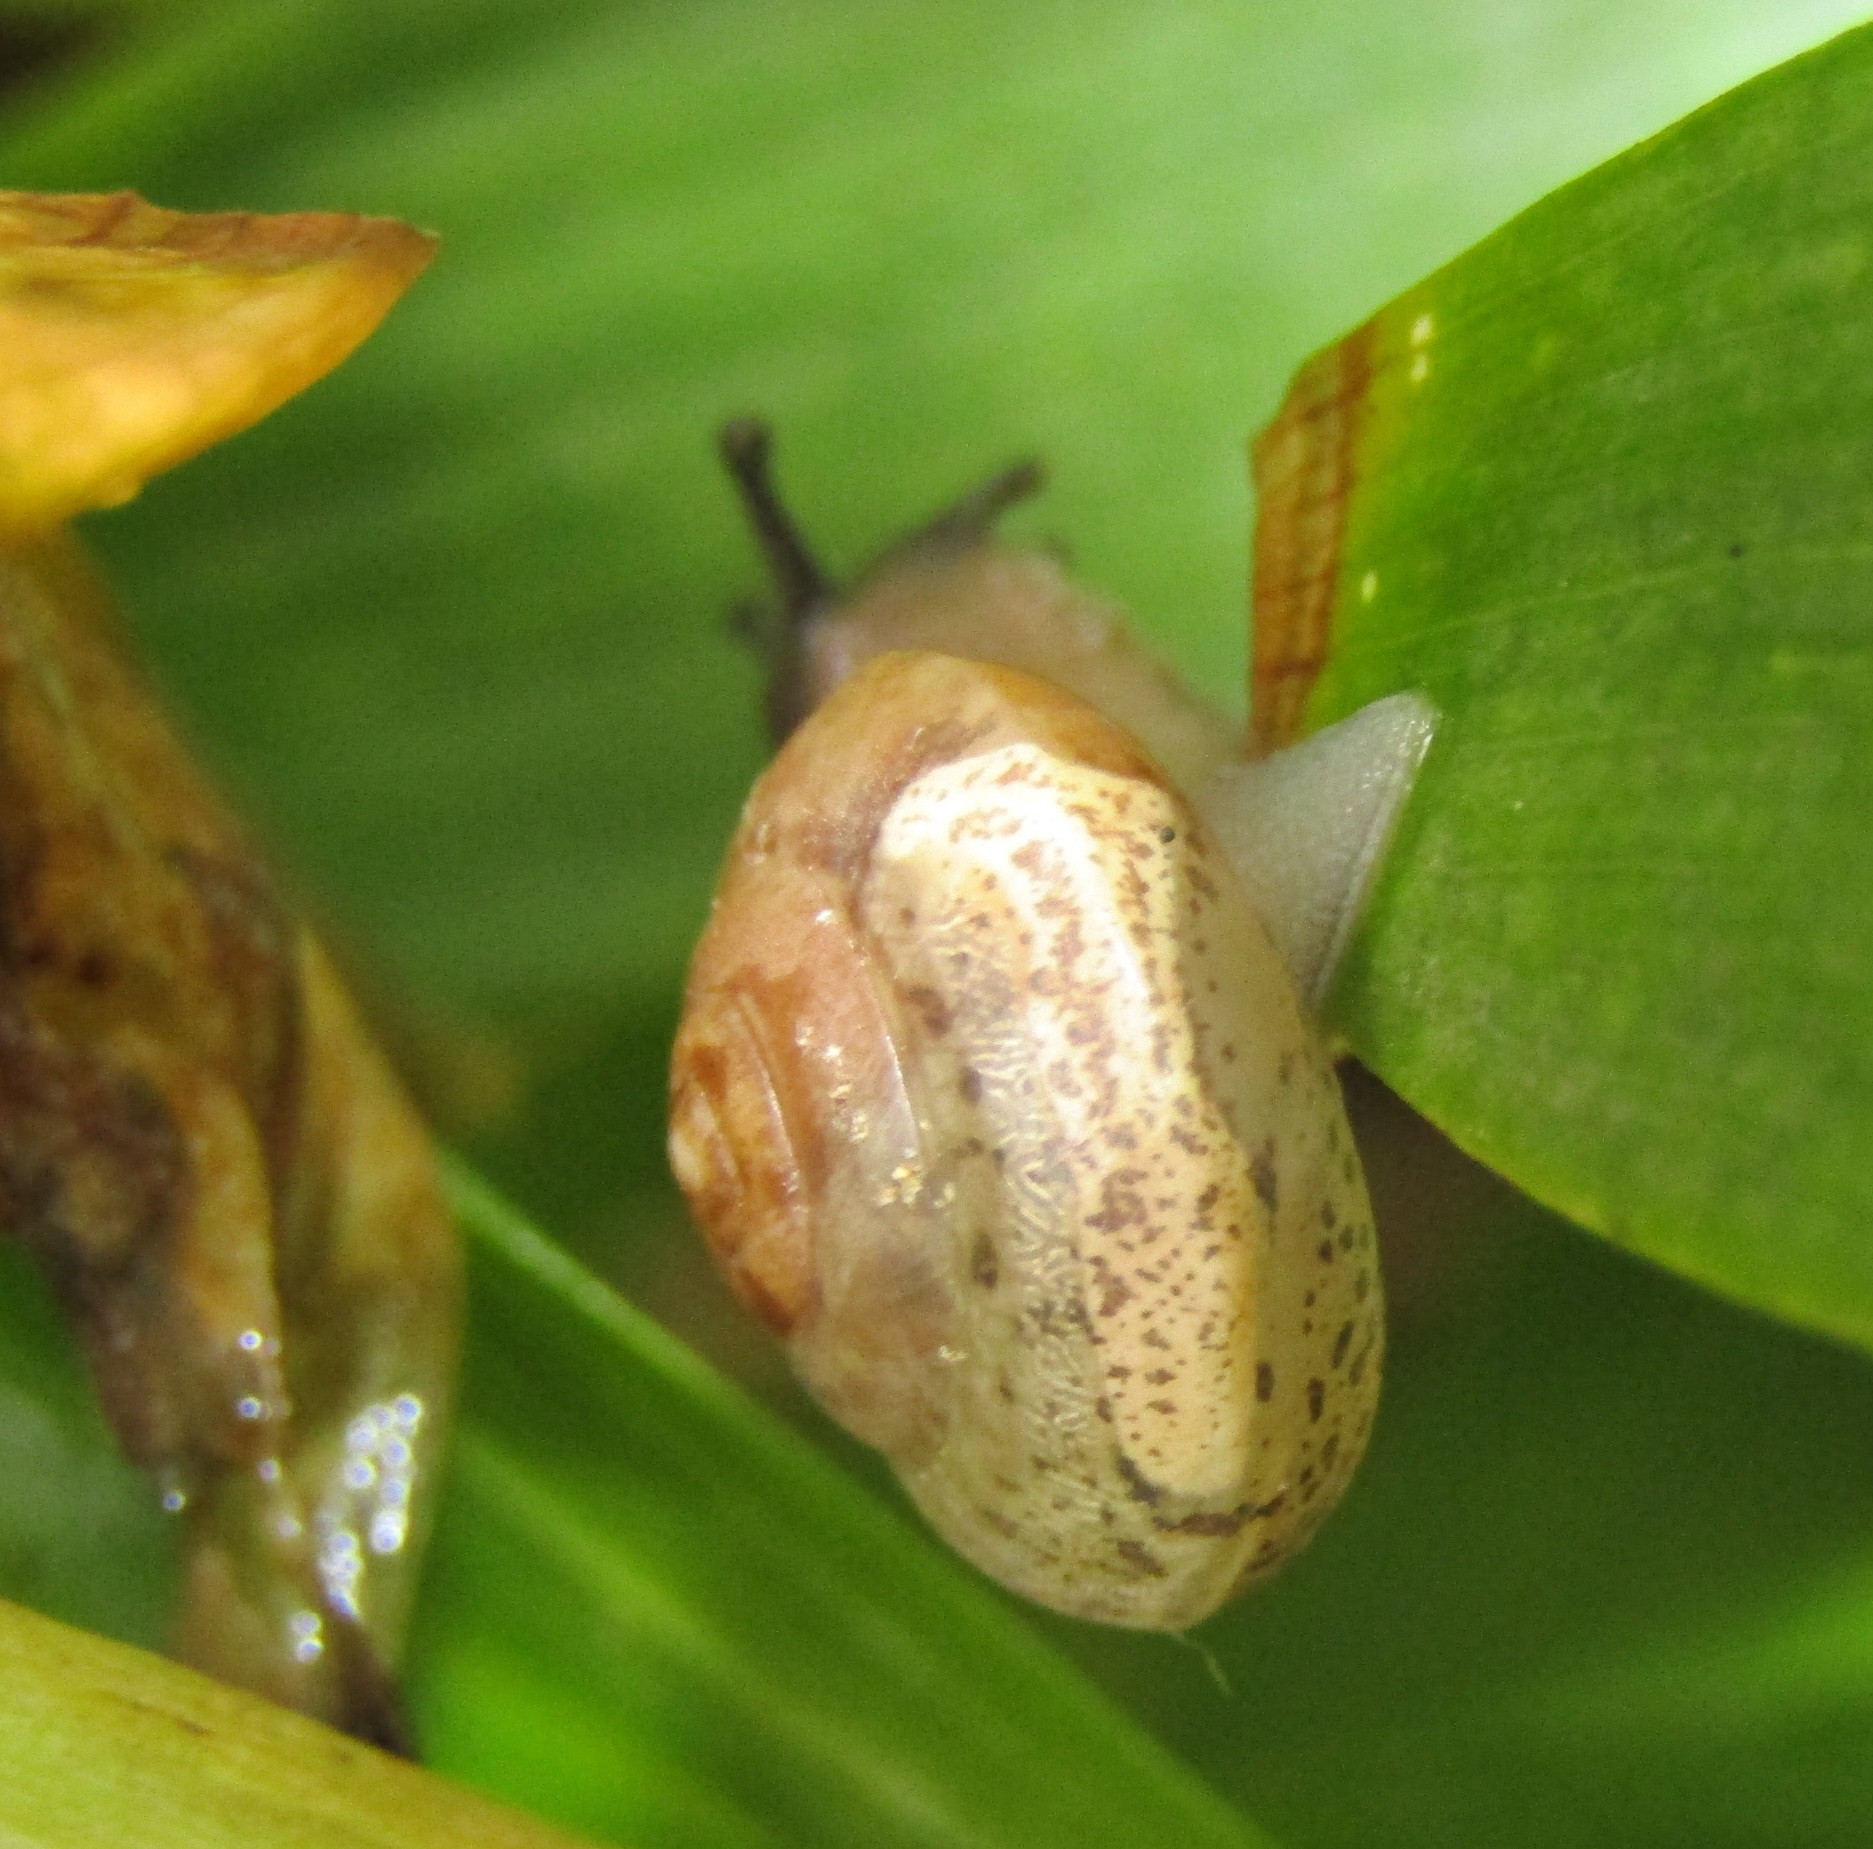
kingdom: Animalia
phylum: Mollusca
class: Gastropoda
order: Stylommatophora
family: Hygromiidae
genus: Hygromia
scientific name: Hygromia cinctella
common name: Girdled snail
